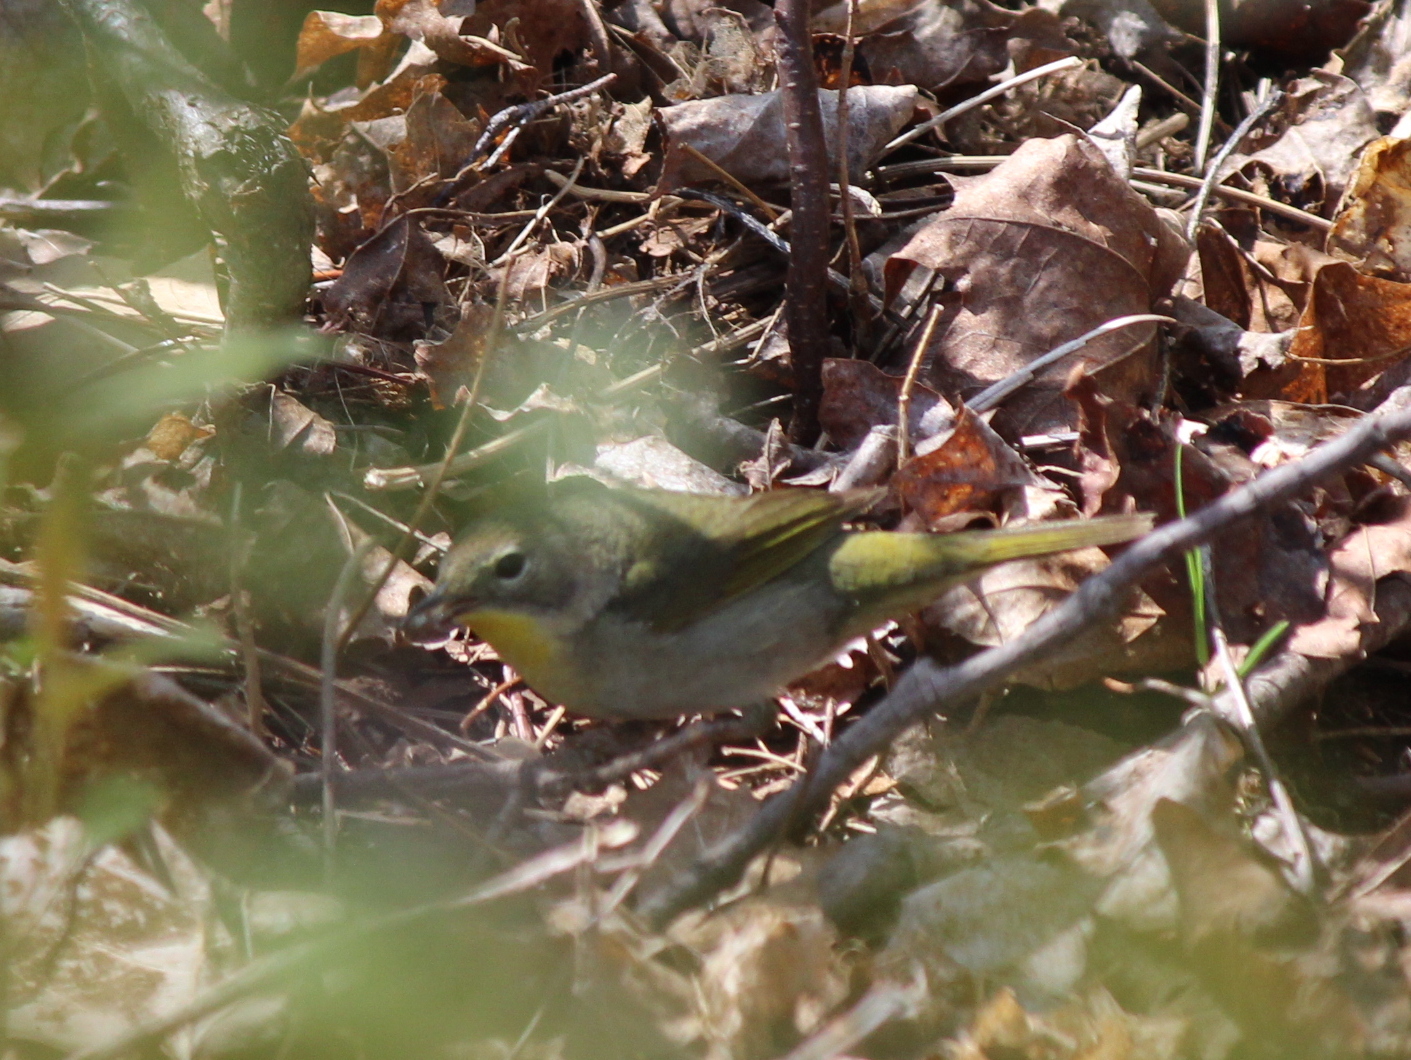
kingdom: Animalia
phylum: Chordata
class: Aves
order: Passeriformes
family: Parulidae
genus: Geothlypis
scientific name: Geothlypis trichas
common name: Common yellowthroat
